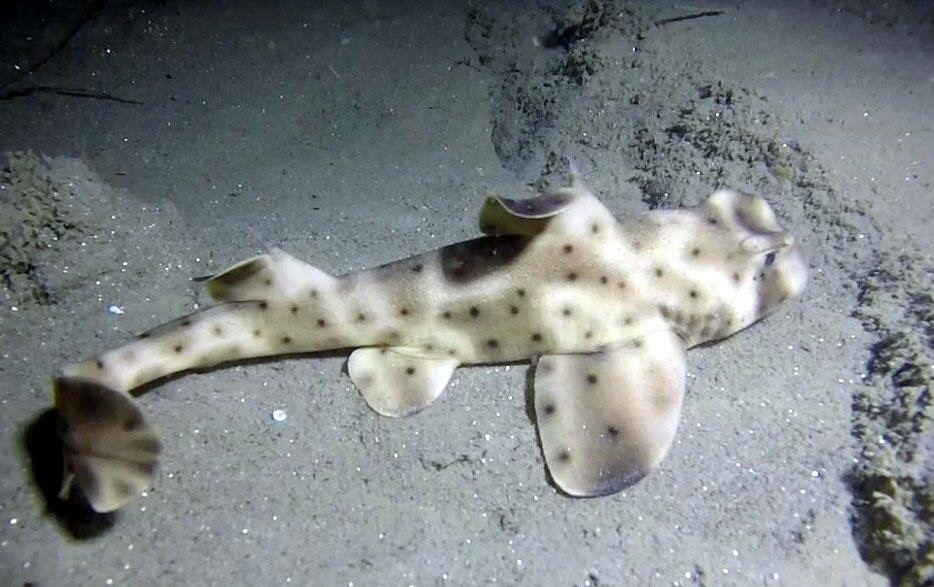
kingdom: Animalia
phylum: Chordata
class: Elasmobranchii
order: Heterodontiformes
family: Heterodontidae
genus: Heterodontus
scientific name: Heterodontus francisci
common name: Horn shark
